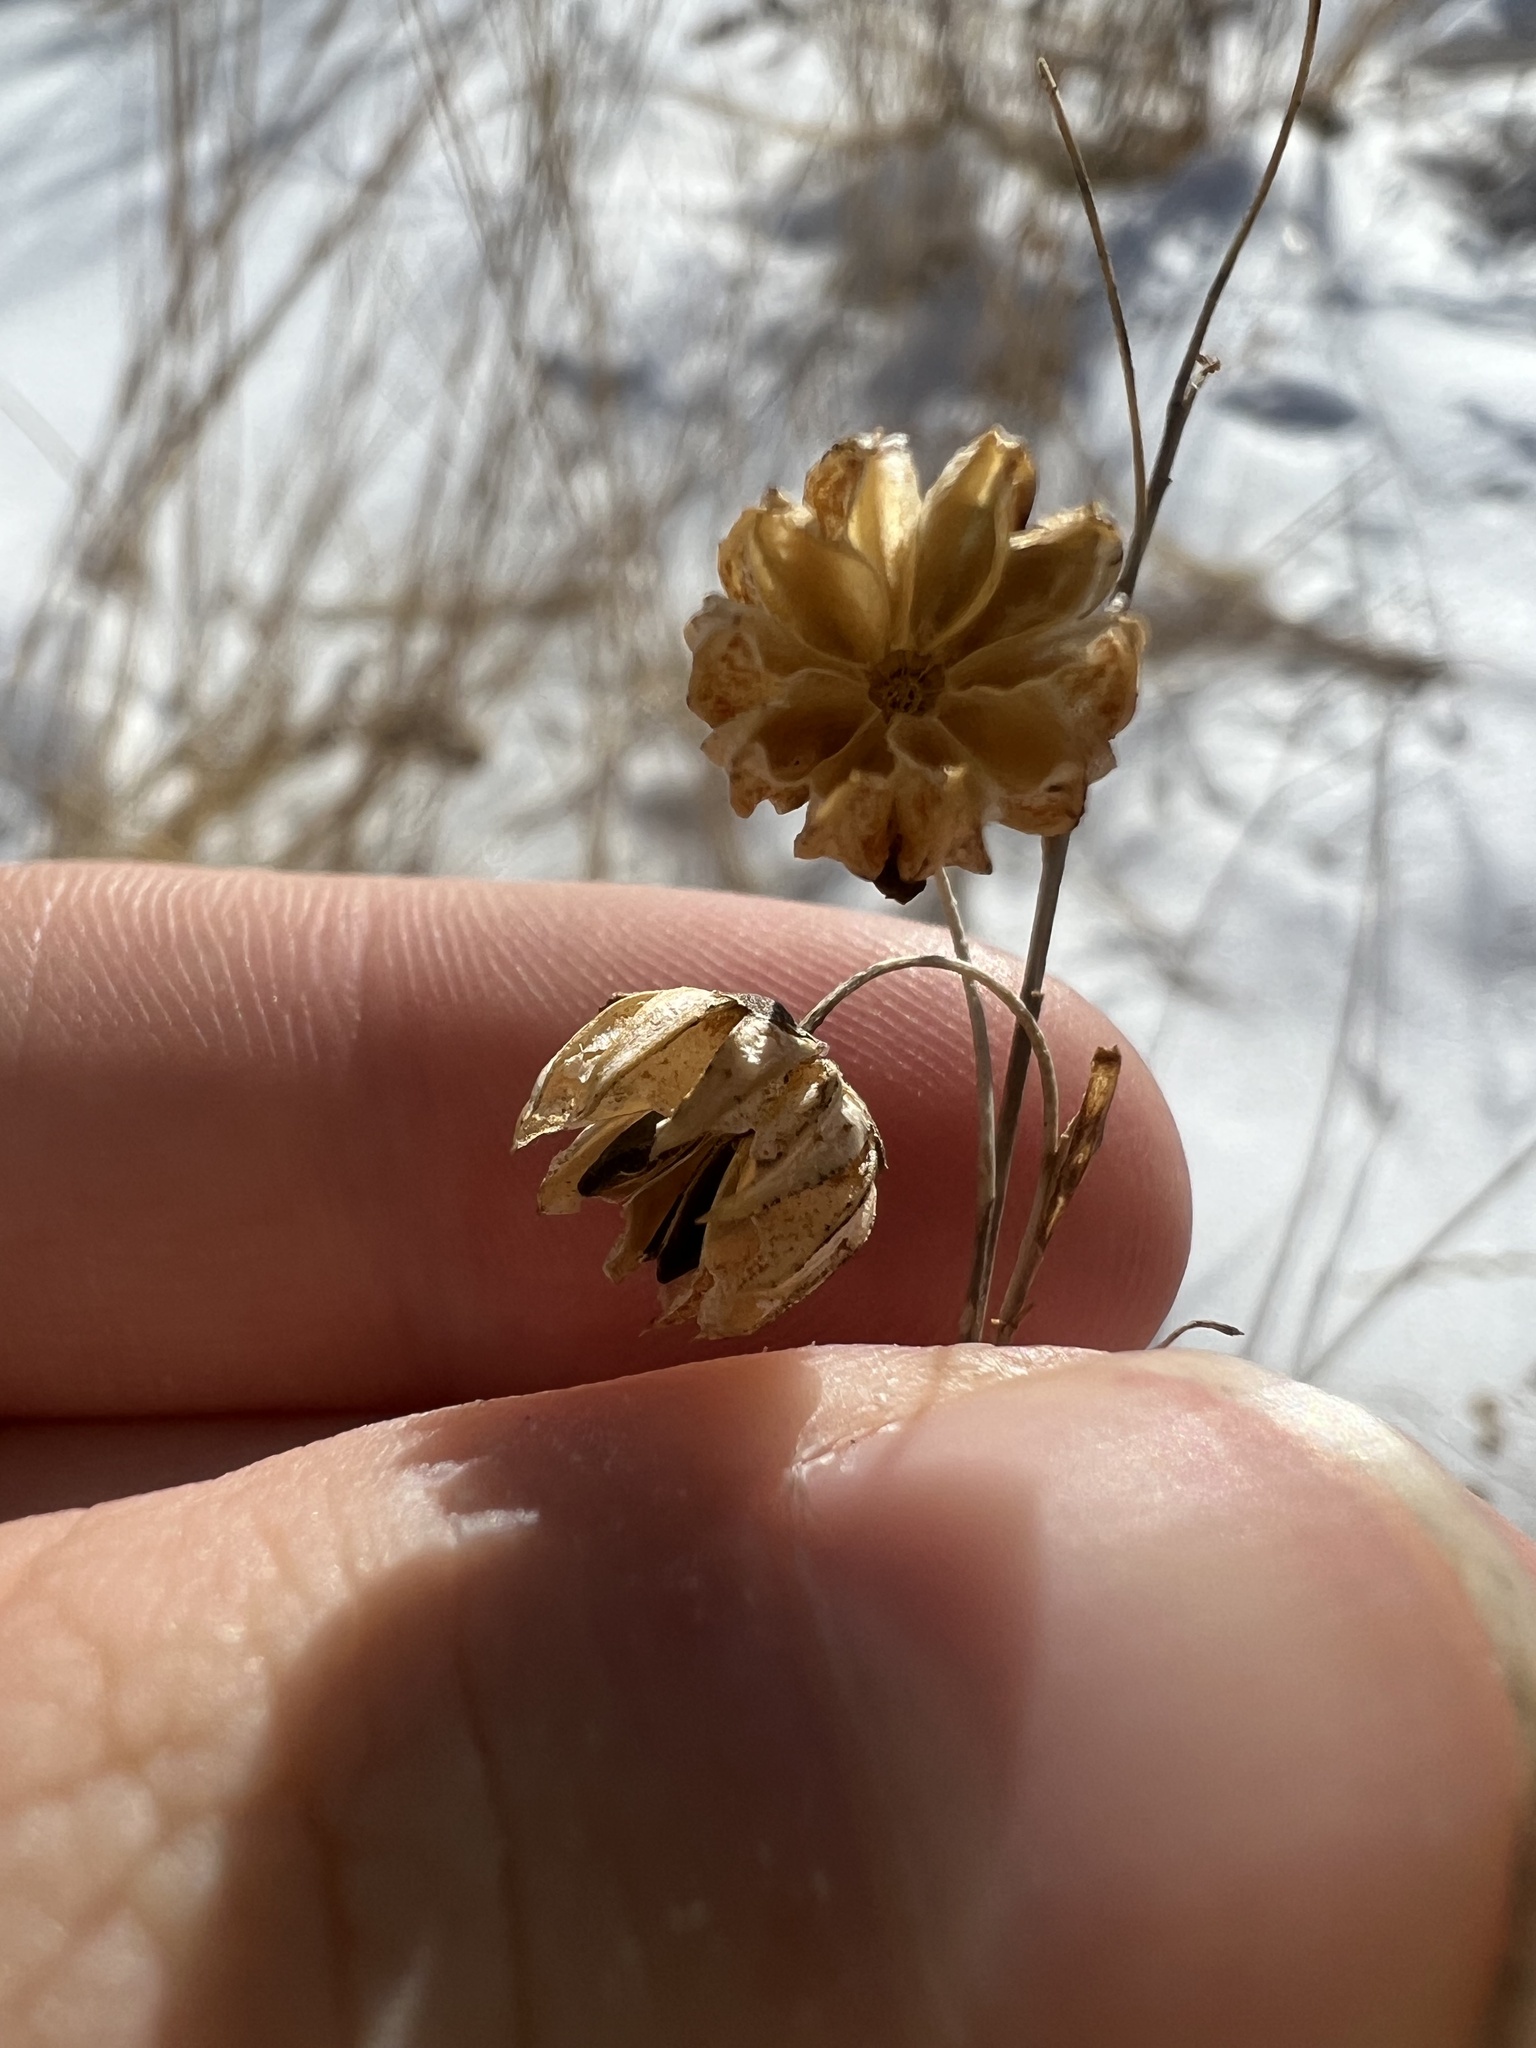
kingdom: Plantae
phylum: Tracheophyta
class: Magnoliopsida
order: Malpighiales
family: Linaceae
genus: Linum
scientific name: Linum lewisii
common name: Prairie flax
